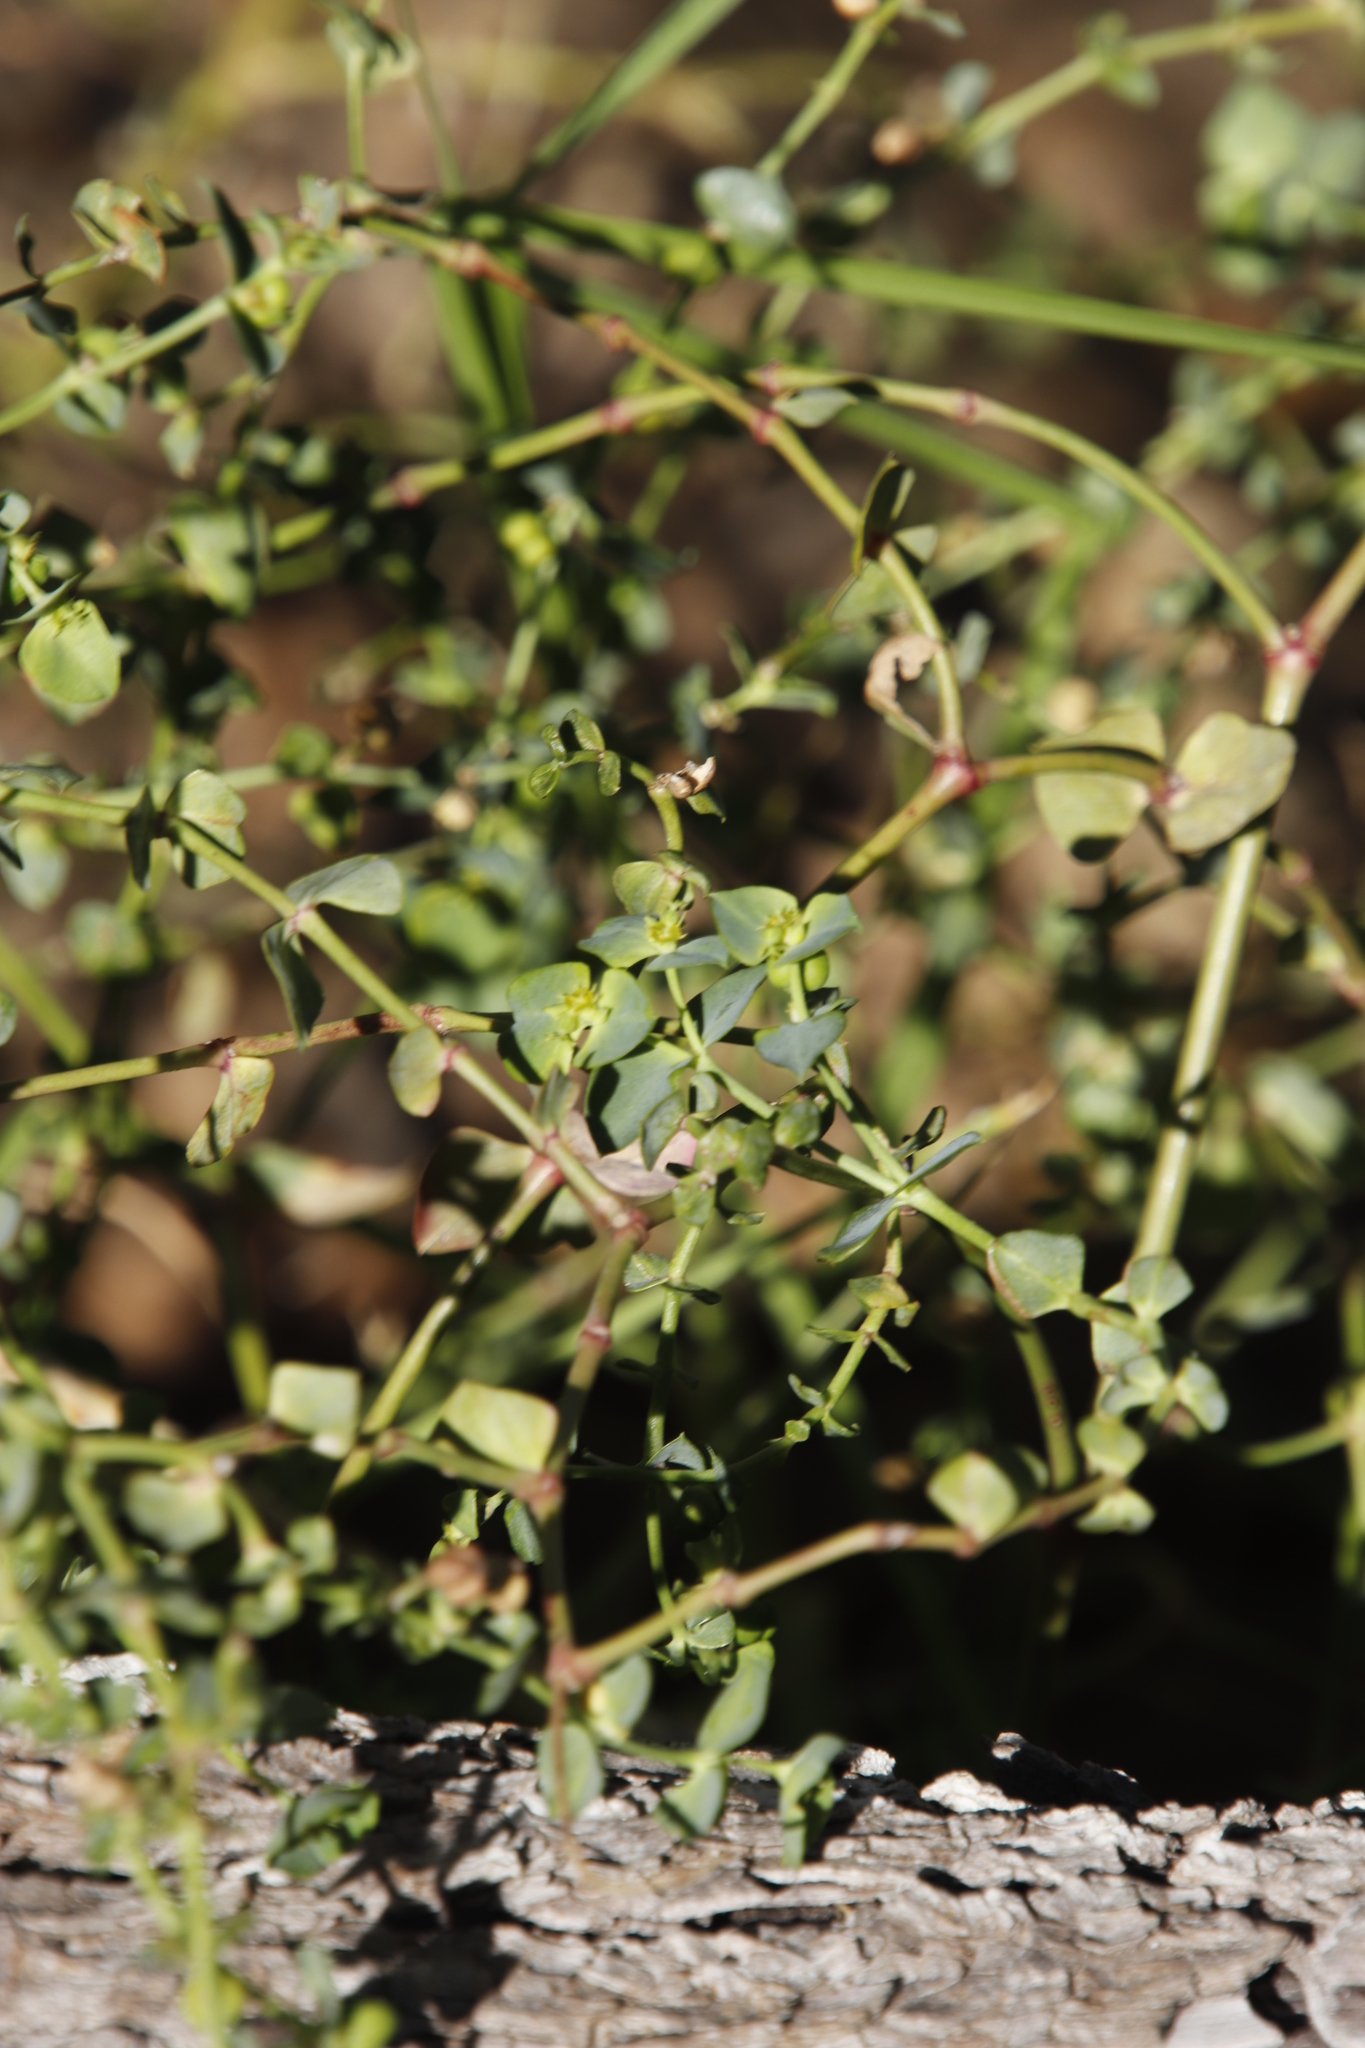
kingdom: Plantae
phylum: Tracheophyta
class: Magnoliopsida
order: Malpighiales
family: Euphorbiaceae
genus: Euphorbia
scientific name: Euphorbia terracina
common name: Geraldton carnation weed
